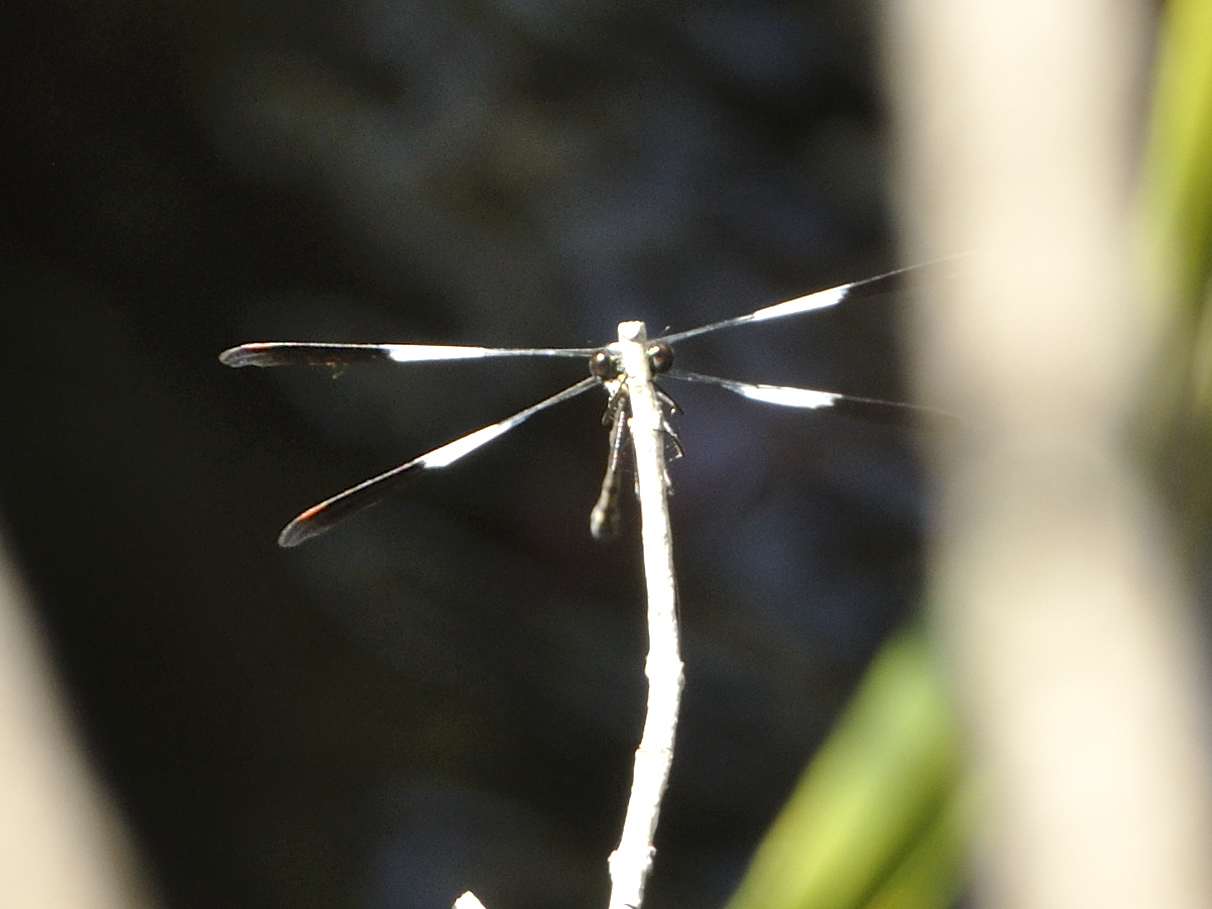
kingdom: Animalia
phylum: Arthropoda
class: Insecta
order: Odonata
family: Synlestidae
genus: Chlorolestes
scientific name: Chlorolestes umbratus
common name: White malachite
